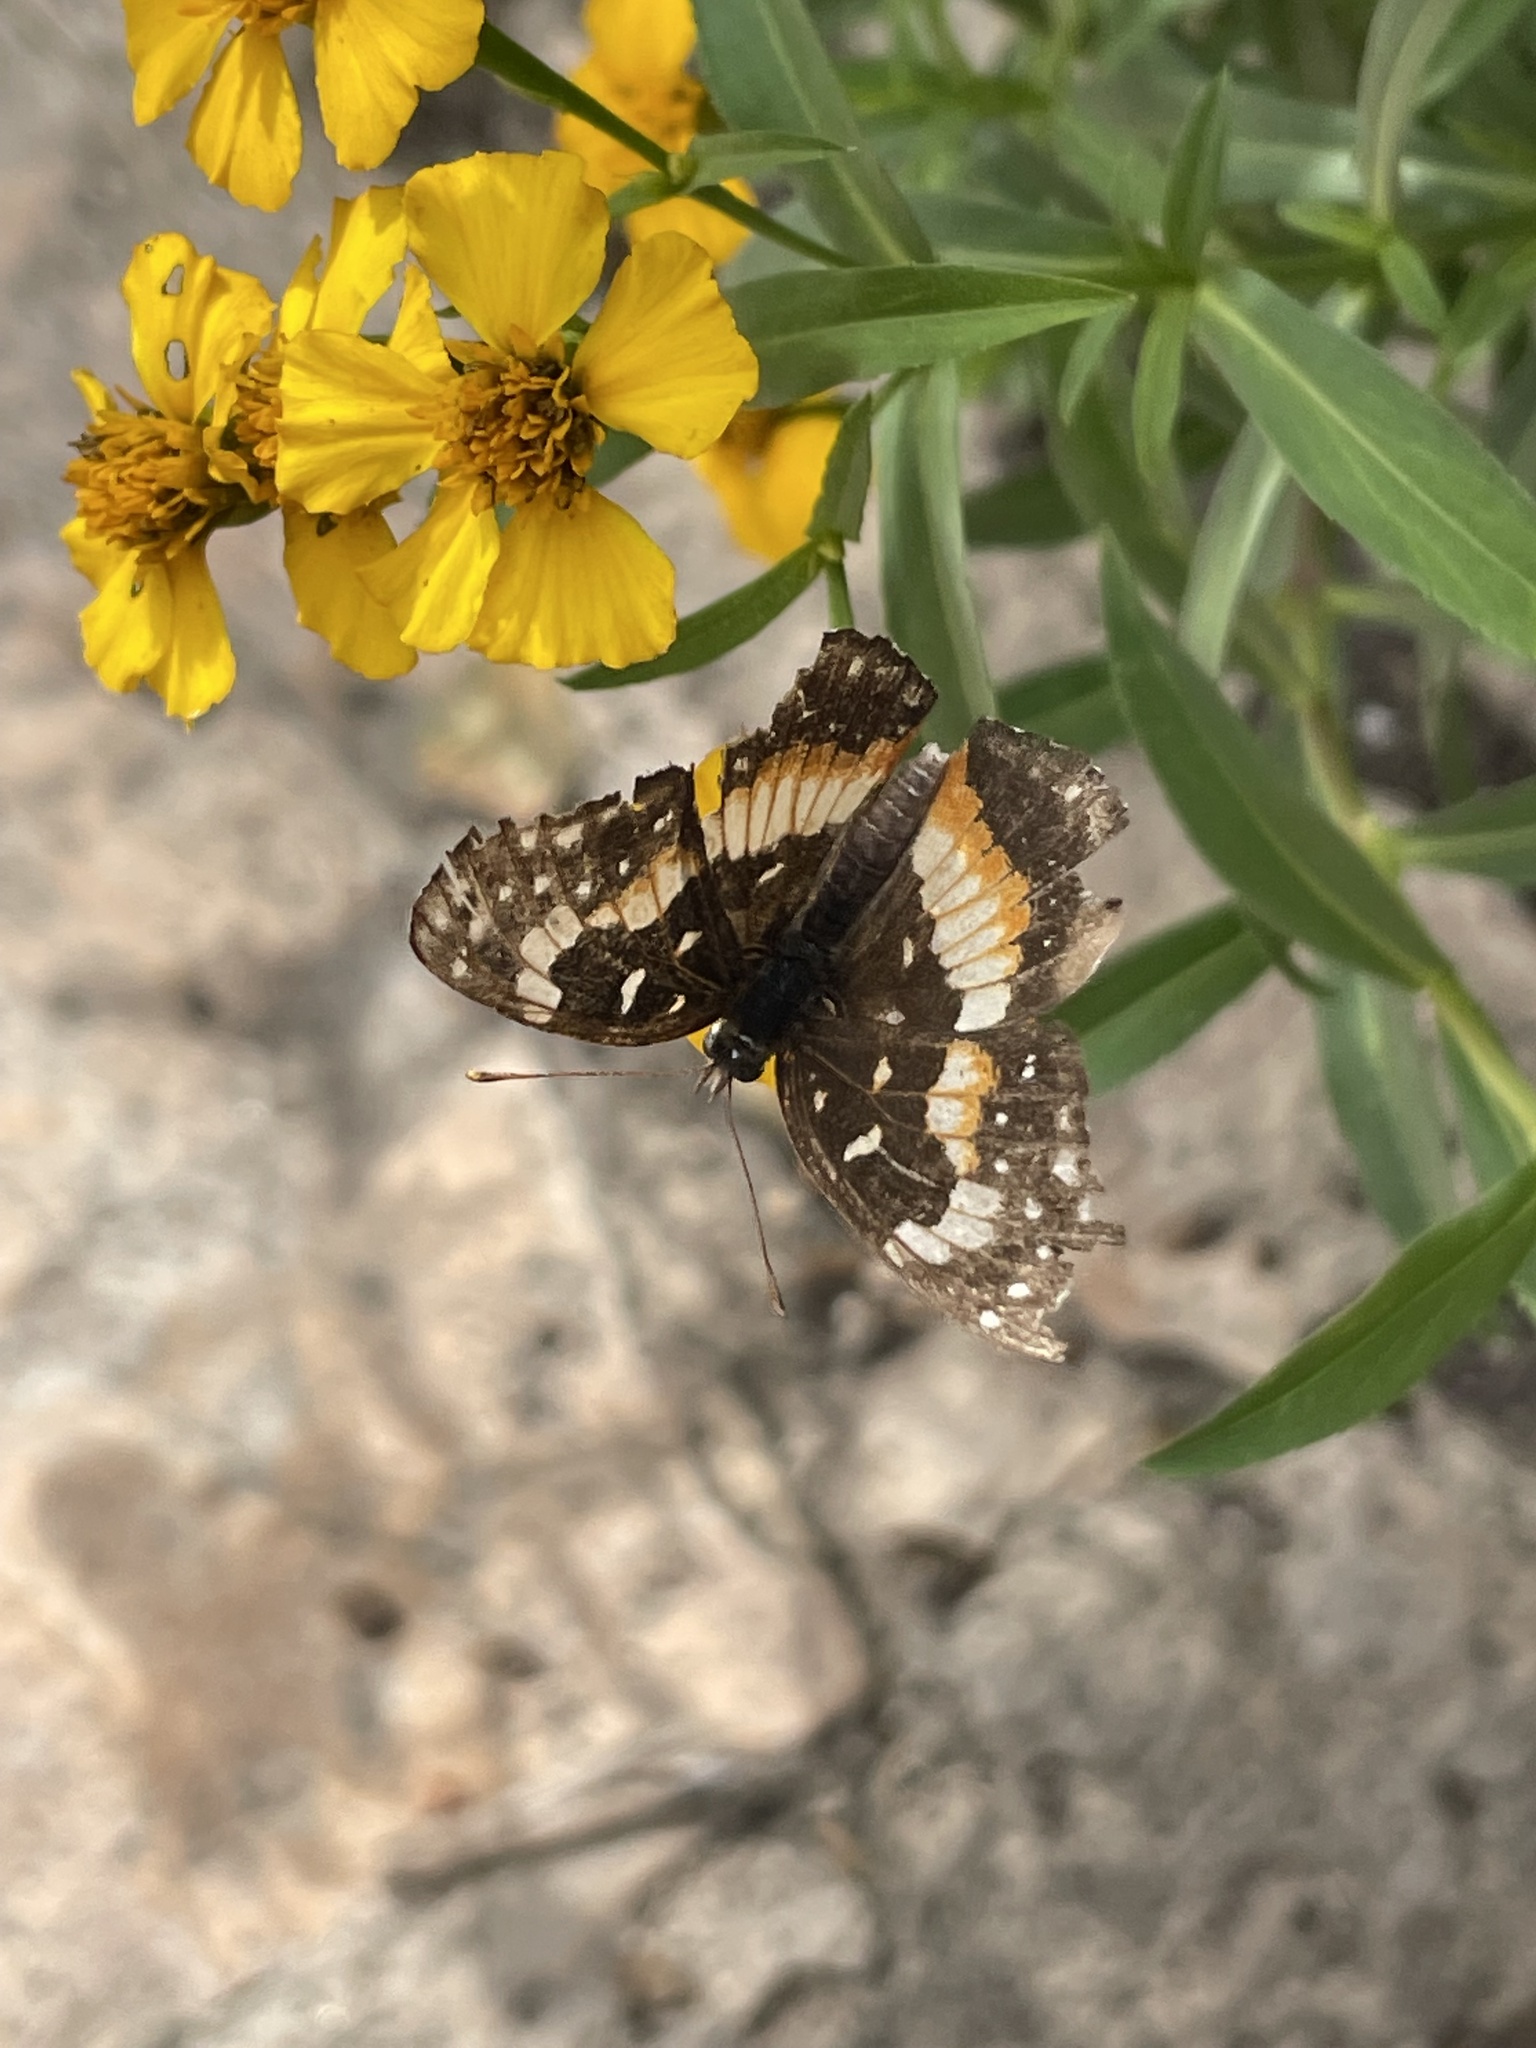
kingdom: Animalia
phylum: Arthropoda
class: Insecta
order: Lepidoptera
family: Nymphalidae
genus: Chlosyne
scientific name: Chlosyne lacinia
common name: Bordered patch
